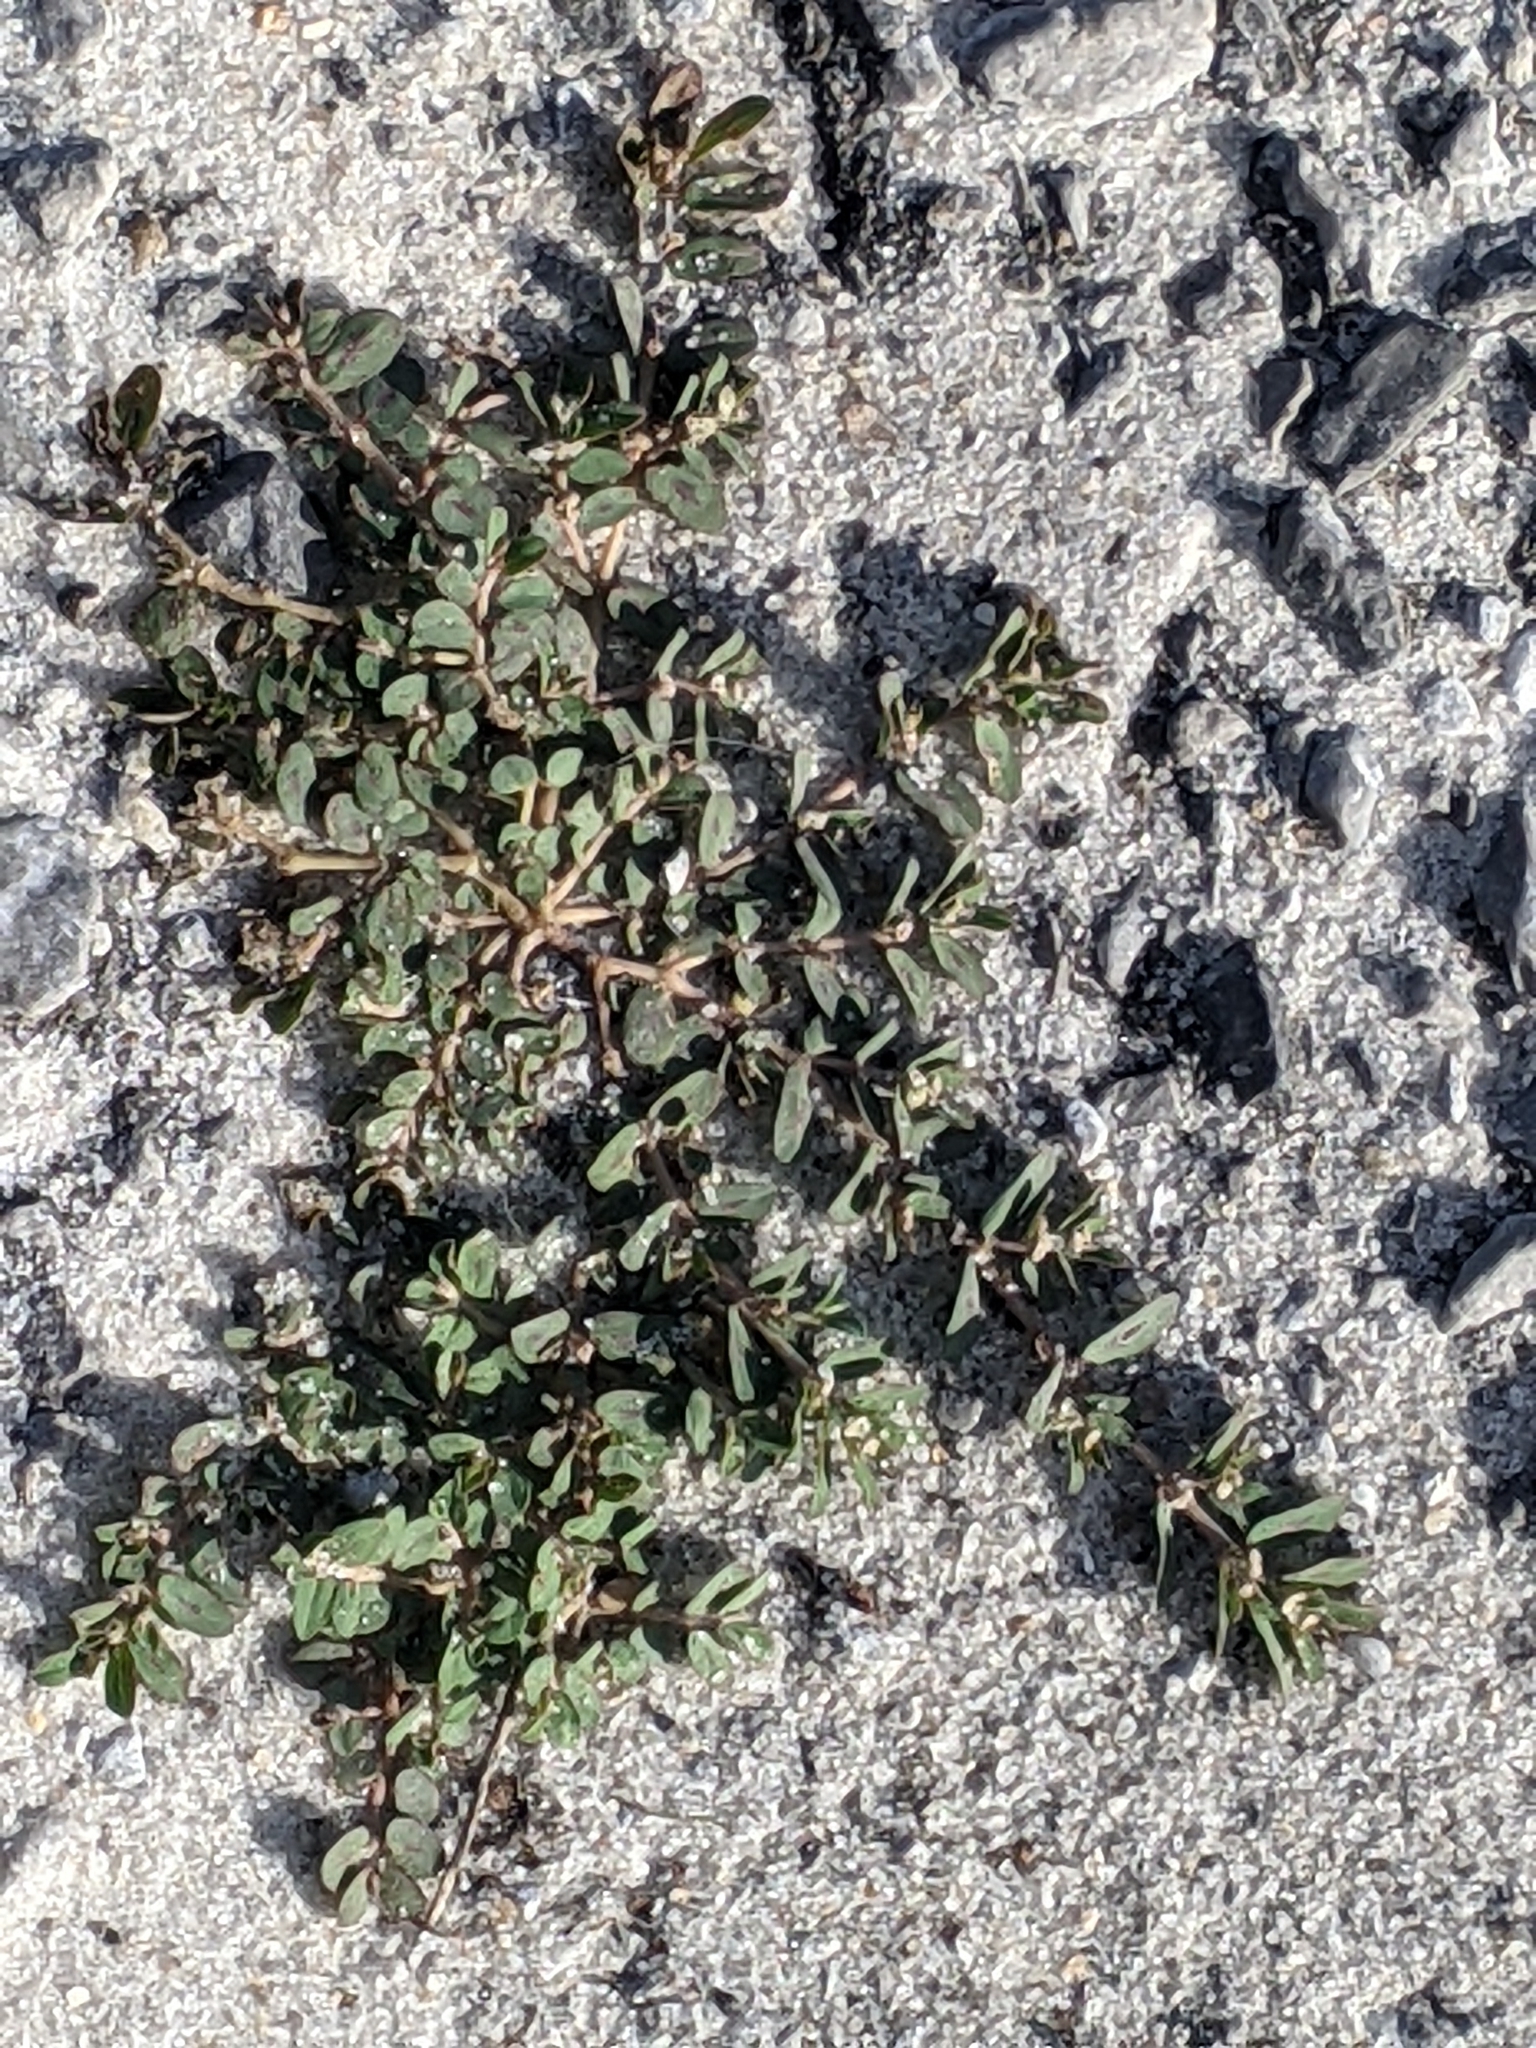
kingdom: Plantae
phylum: Tracheophyta
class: Magnoliopsida
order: Malpighiales
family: Euphorbiaceae
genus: Euphorbia
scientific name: Euphorbia maculata
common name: Spotted spurge
